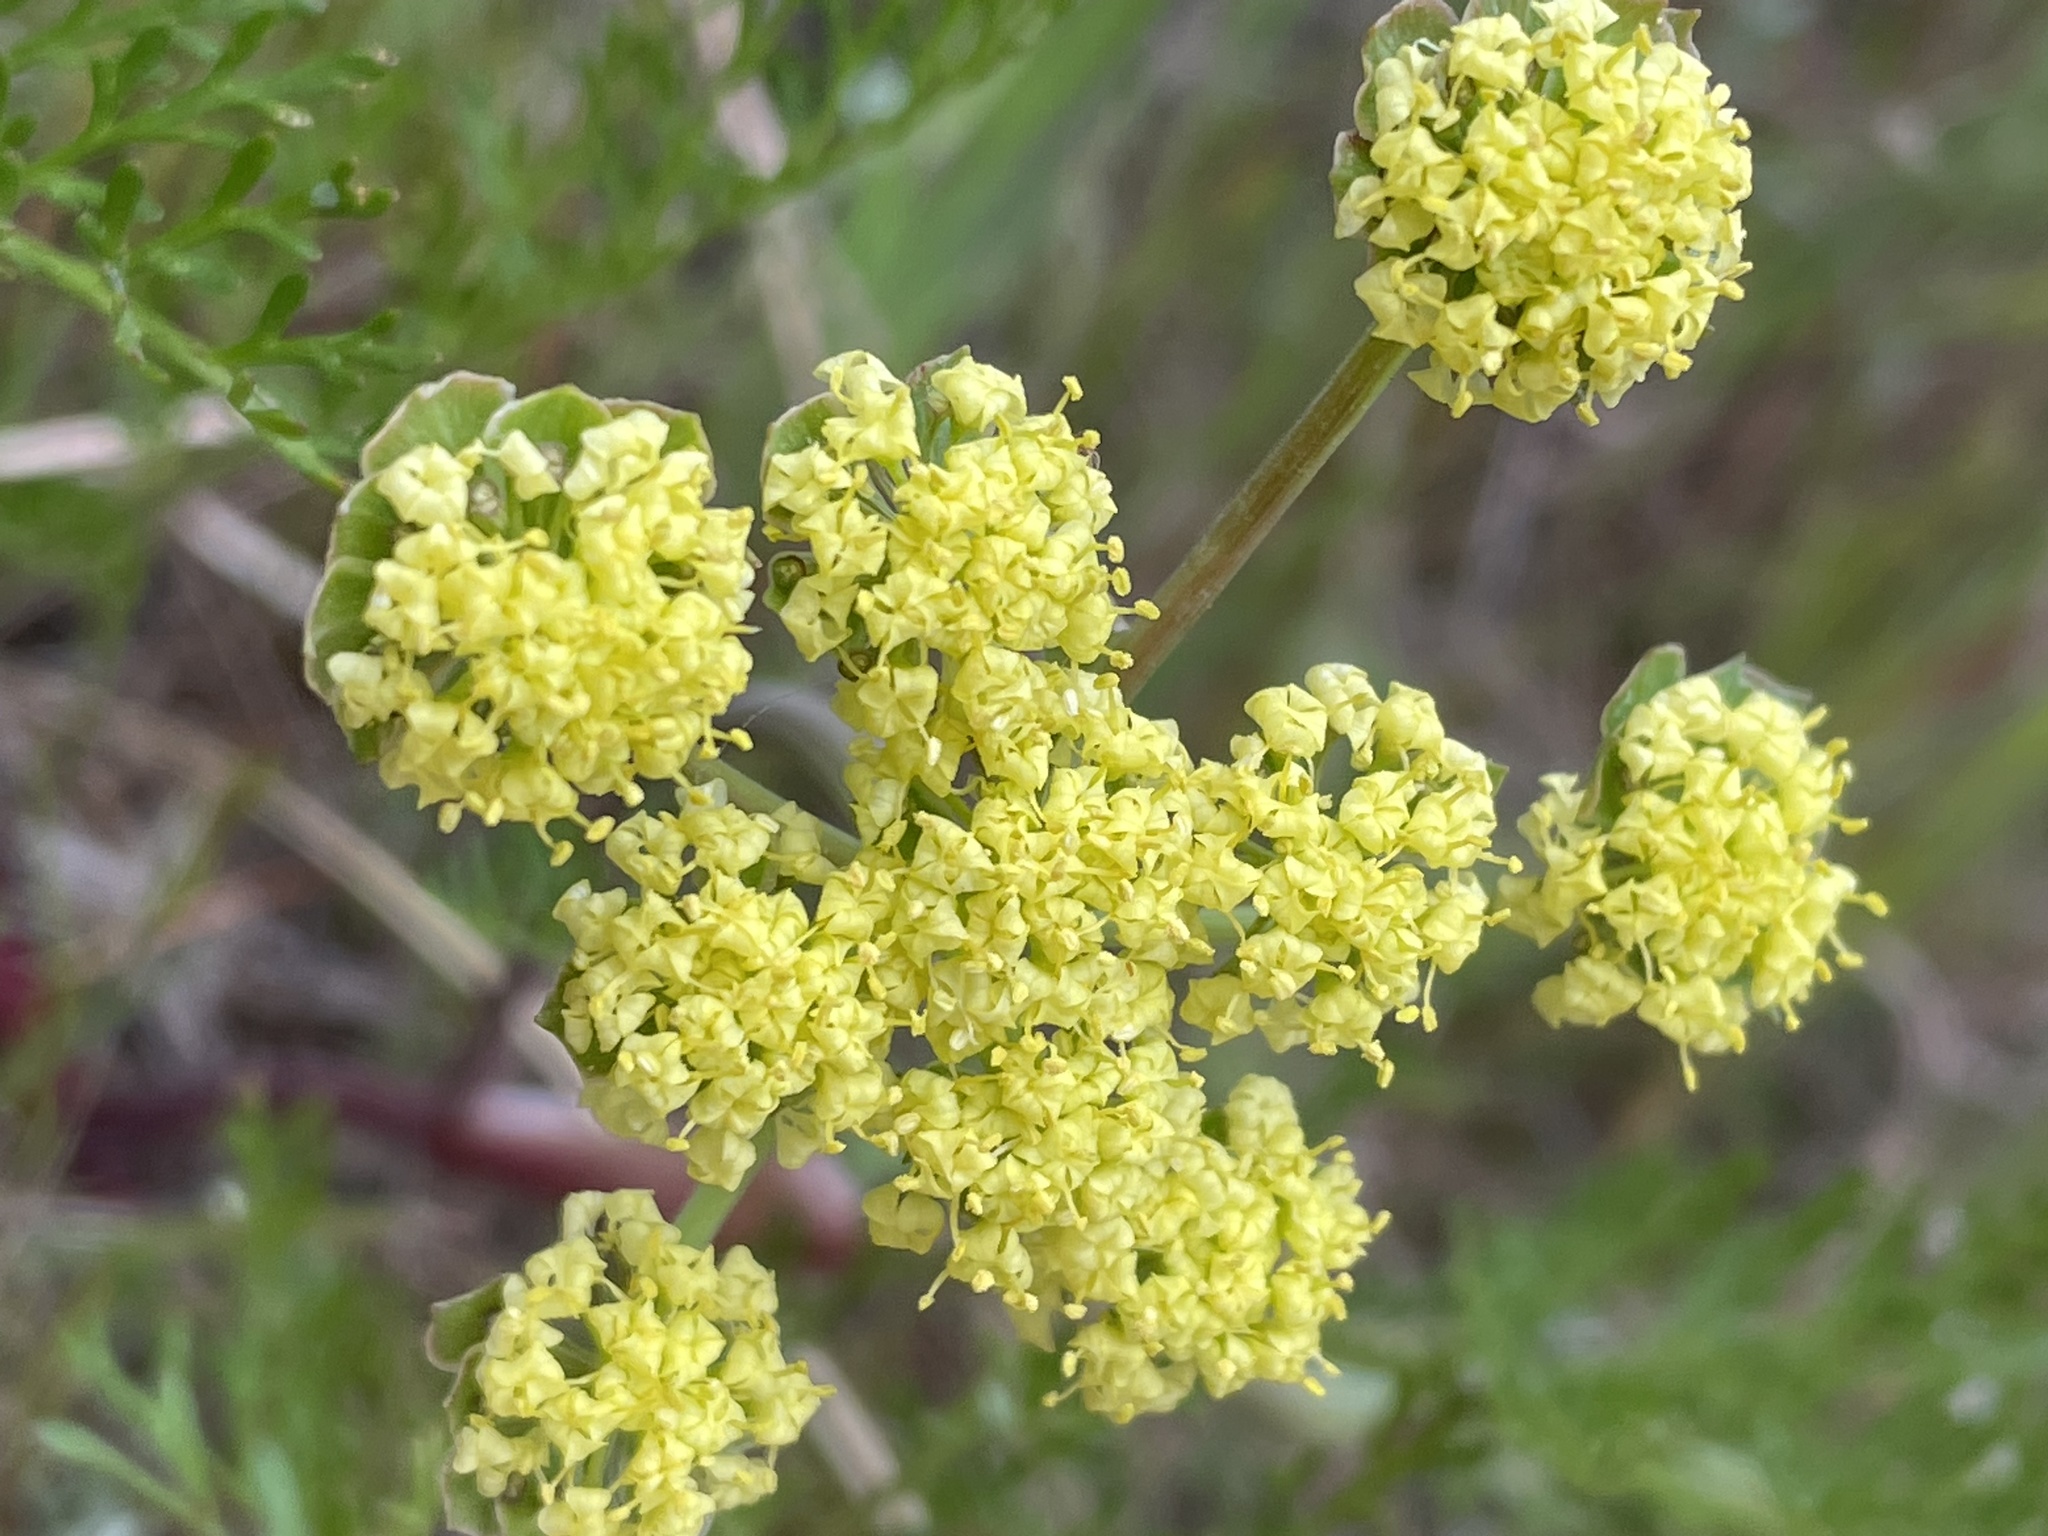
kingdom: Plantae
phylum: Tracheophyta
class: Magnoliopsida
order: Apiales
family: Apiaceae
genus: Lomatium
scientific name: Lomatium utriculatum
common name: Fine-leaf desert-parsley
